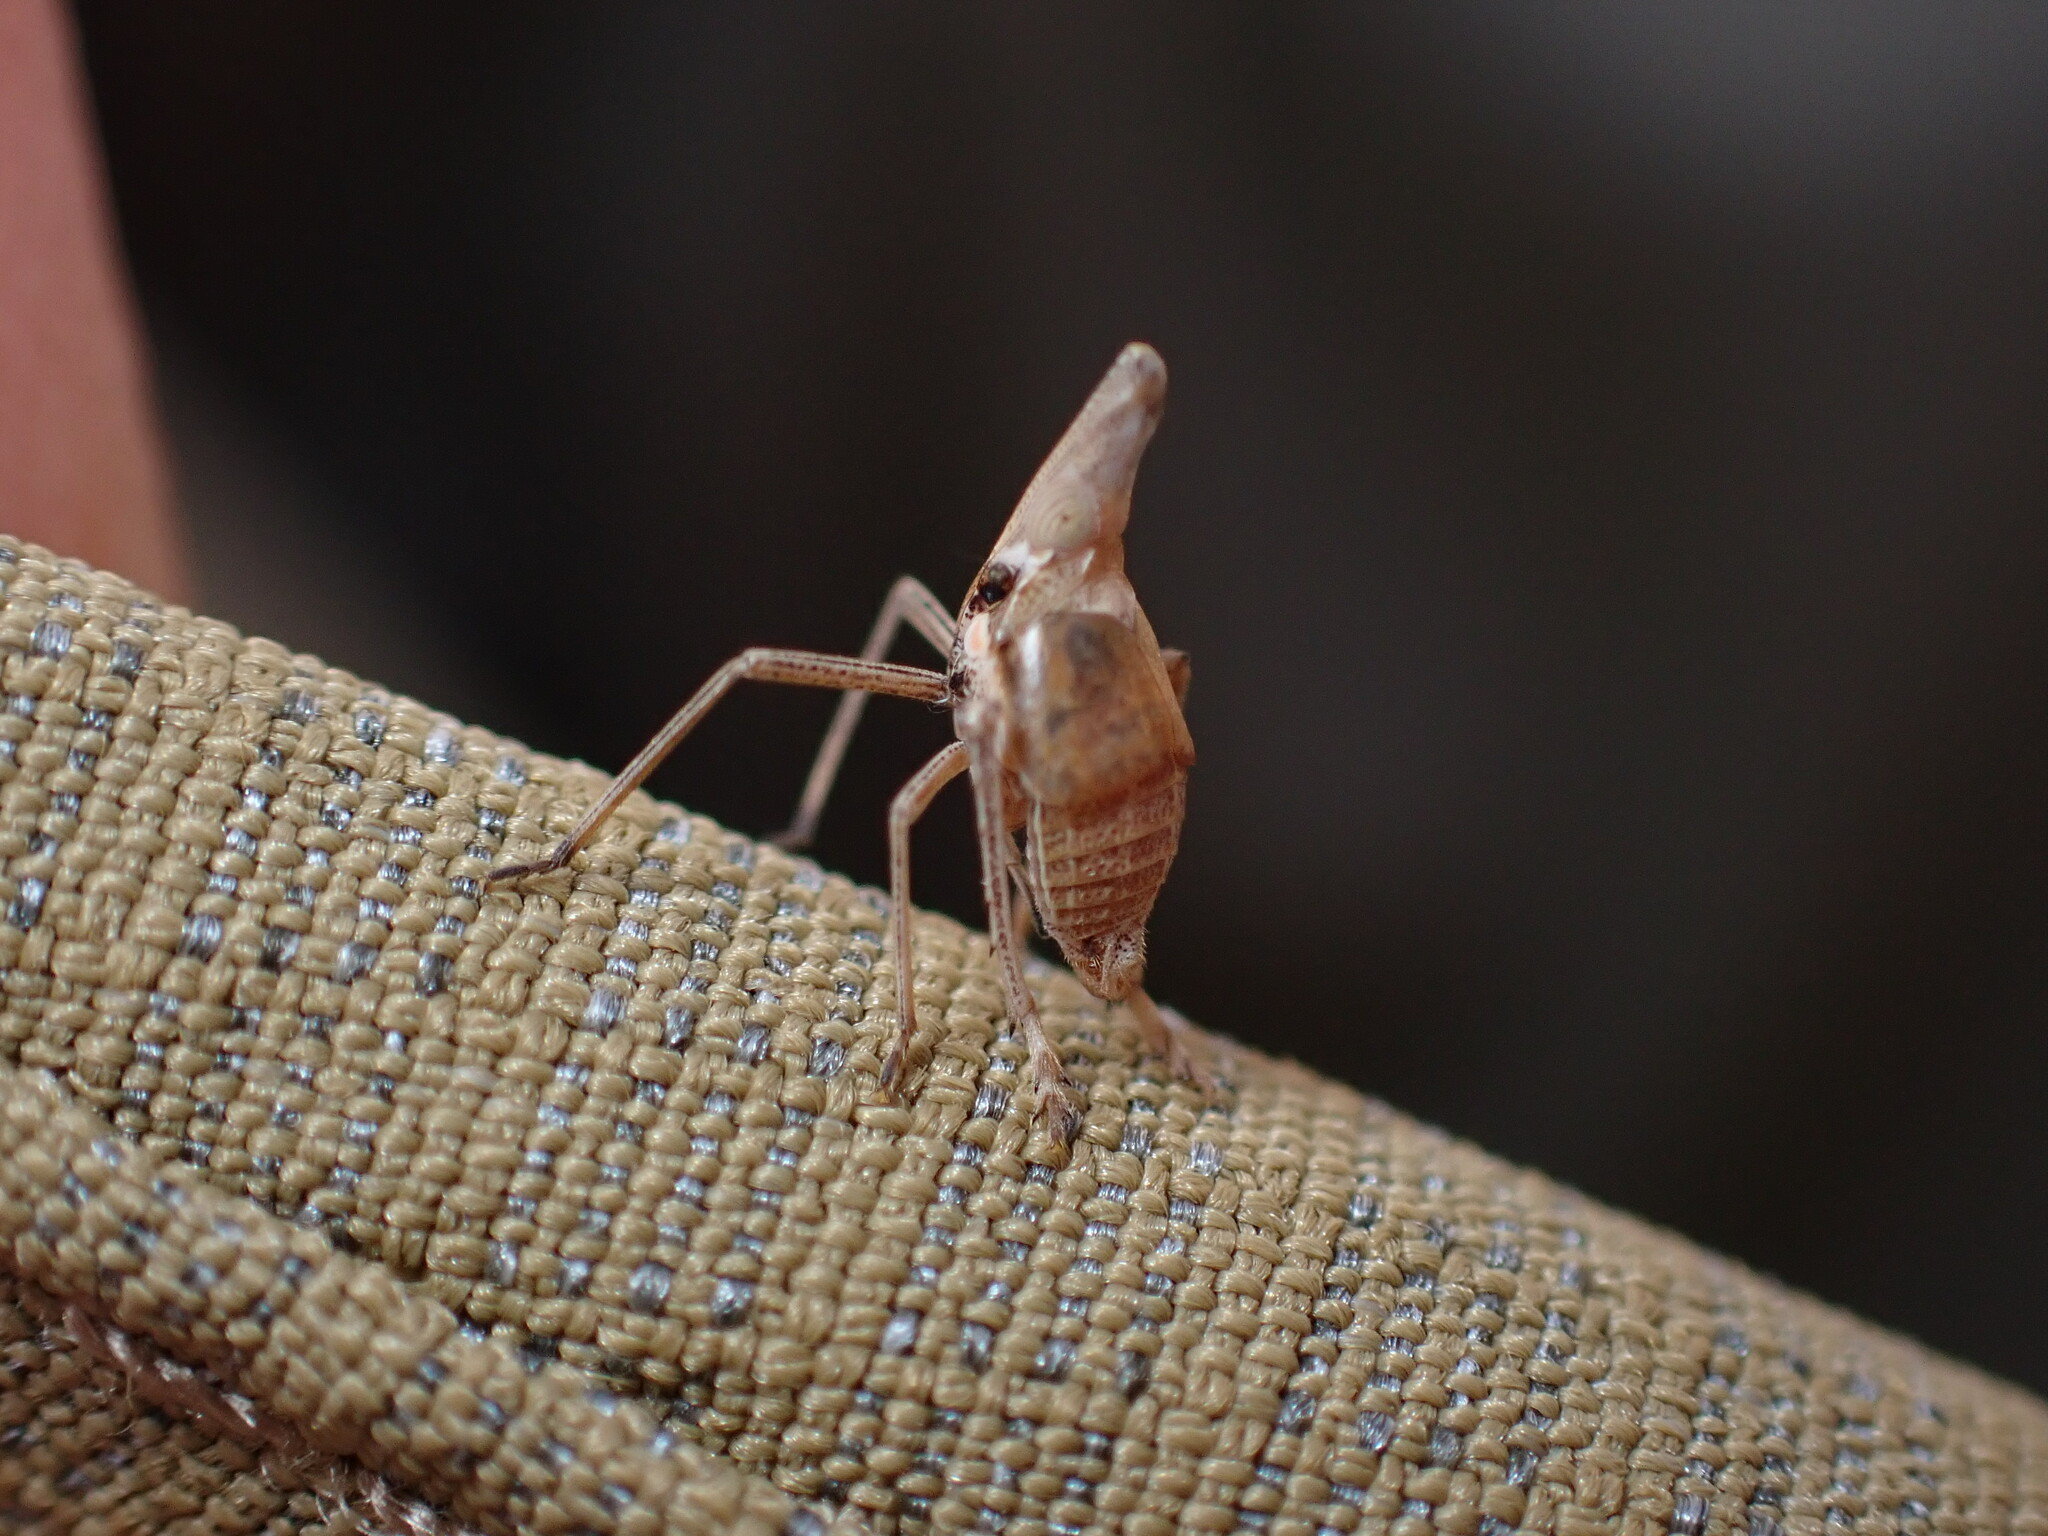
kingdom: Animalia
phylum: Arthropoda
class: Insecta
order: Hemiptera
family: Dictyopharidae
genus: Bursinia
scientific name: Bursinia genei
